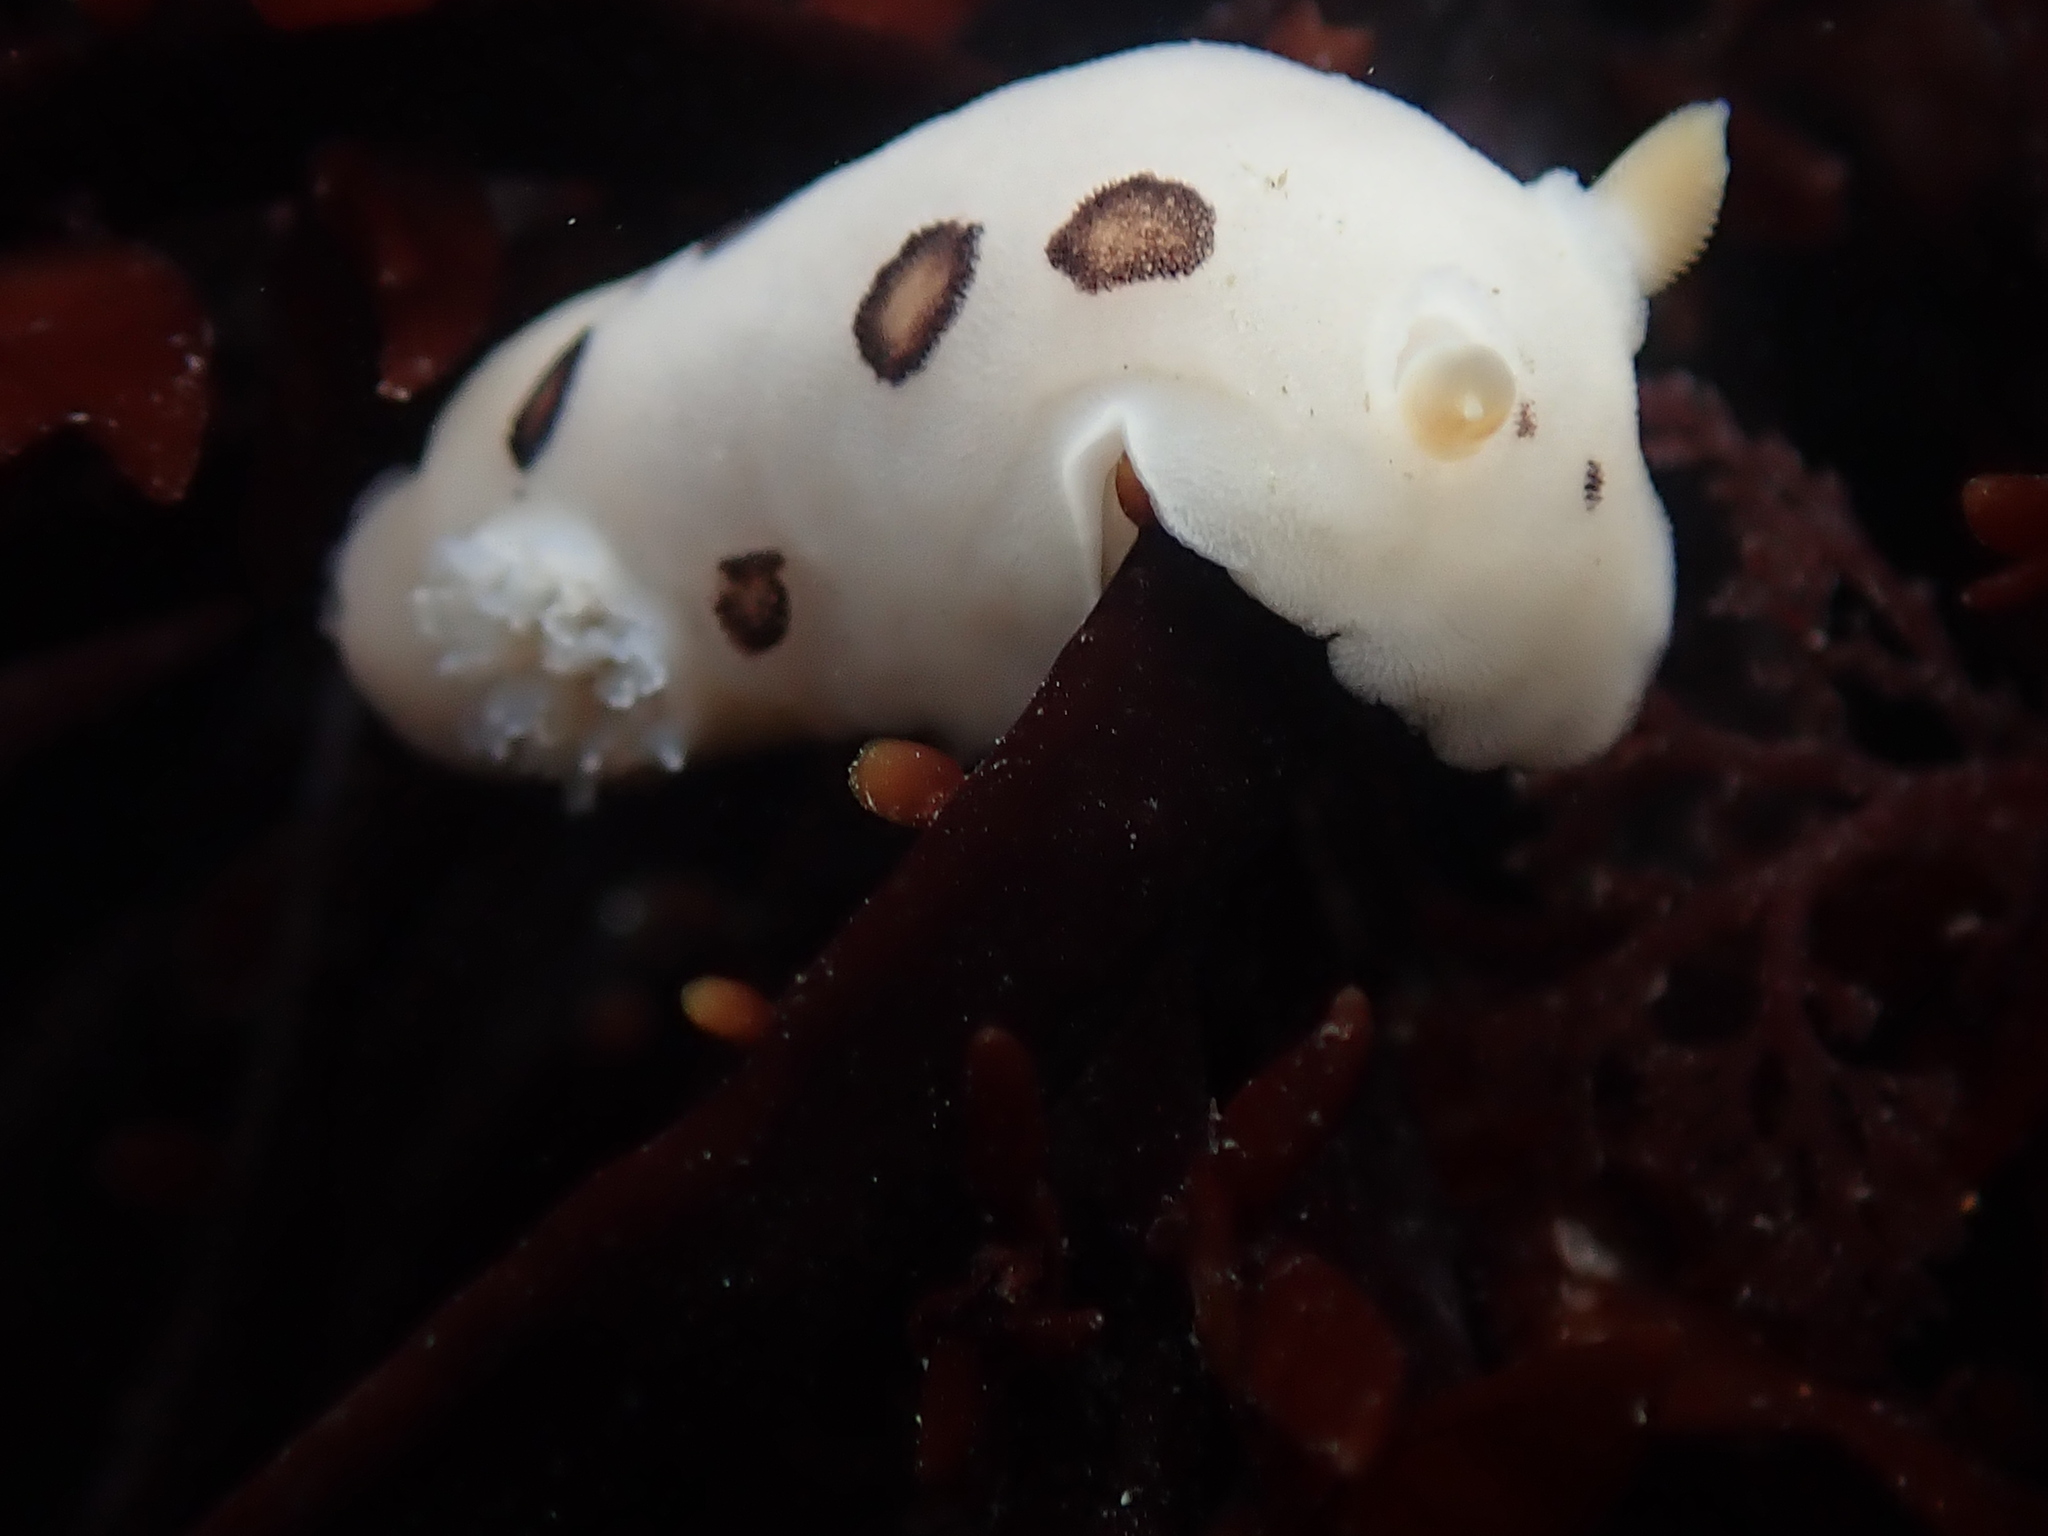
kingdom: Animalia
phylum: Mollusca
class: Gastropoda
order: Nudibranchia
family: Discodorididae
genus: Diaulula
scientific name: Diaulula sandiegensis
